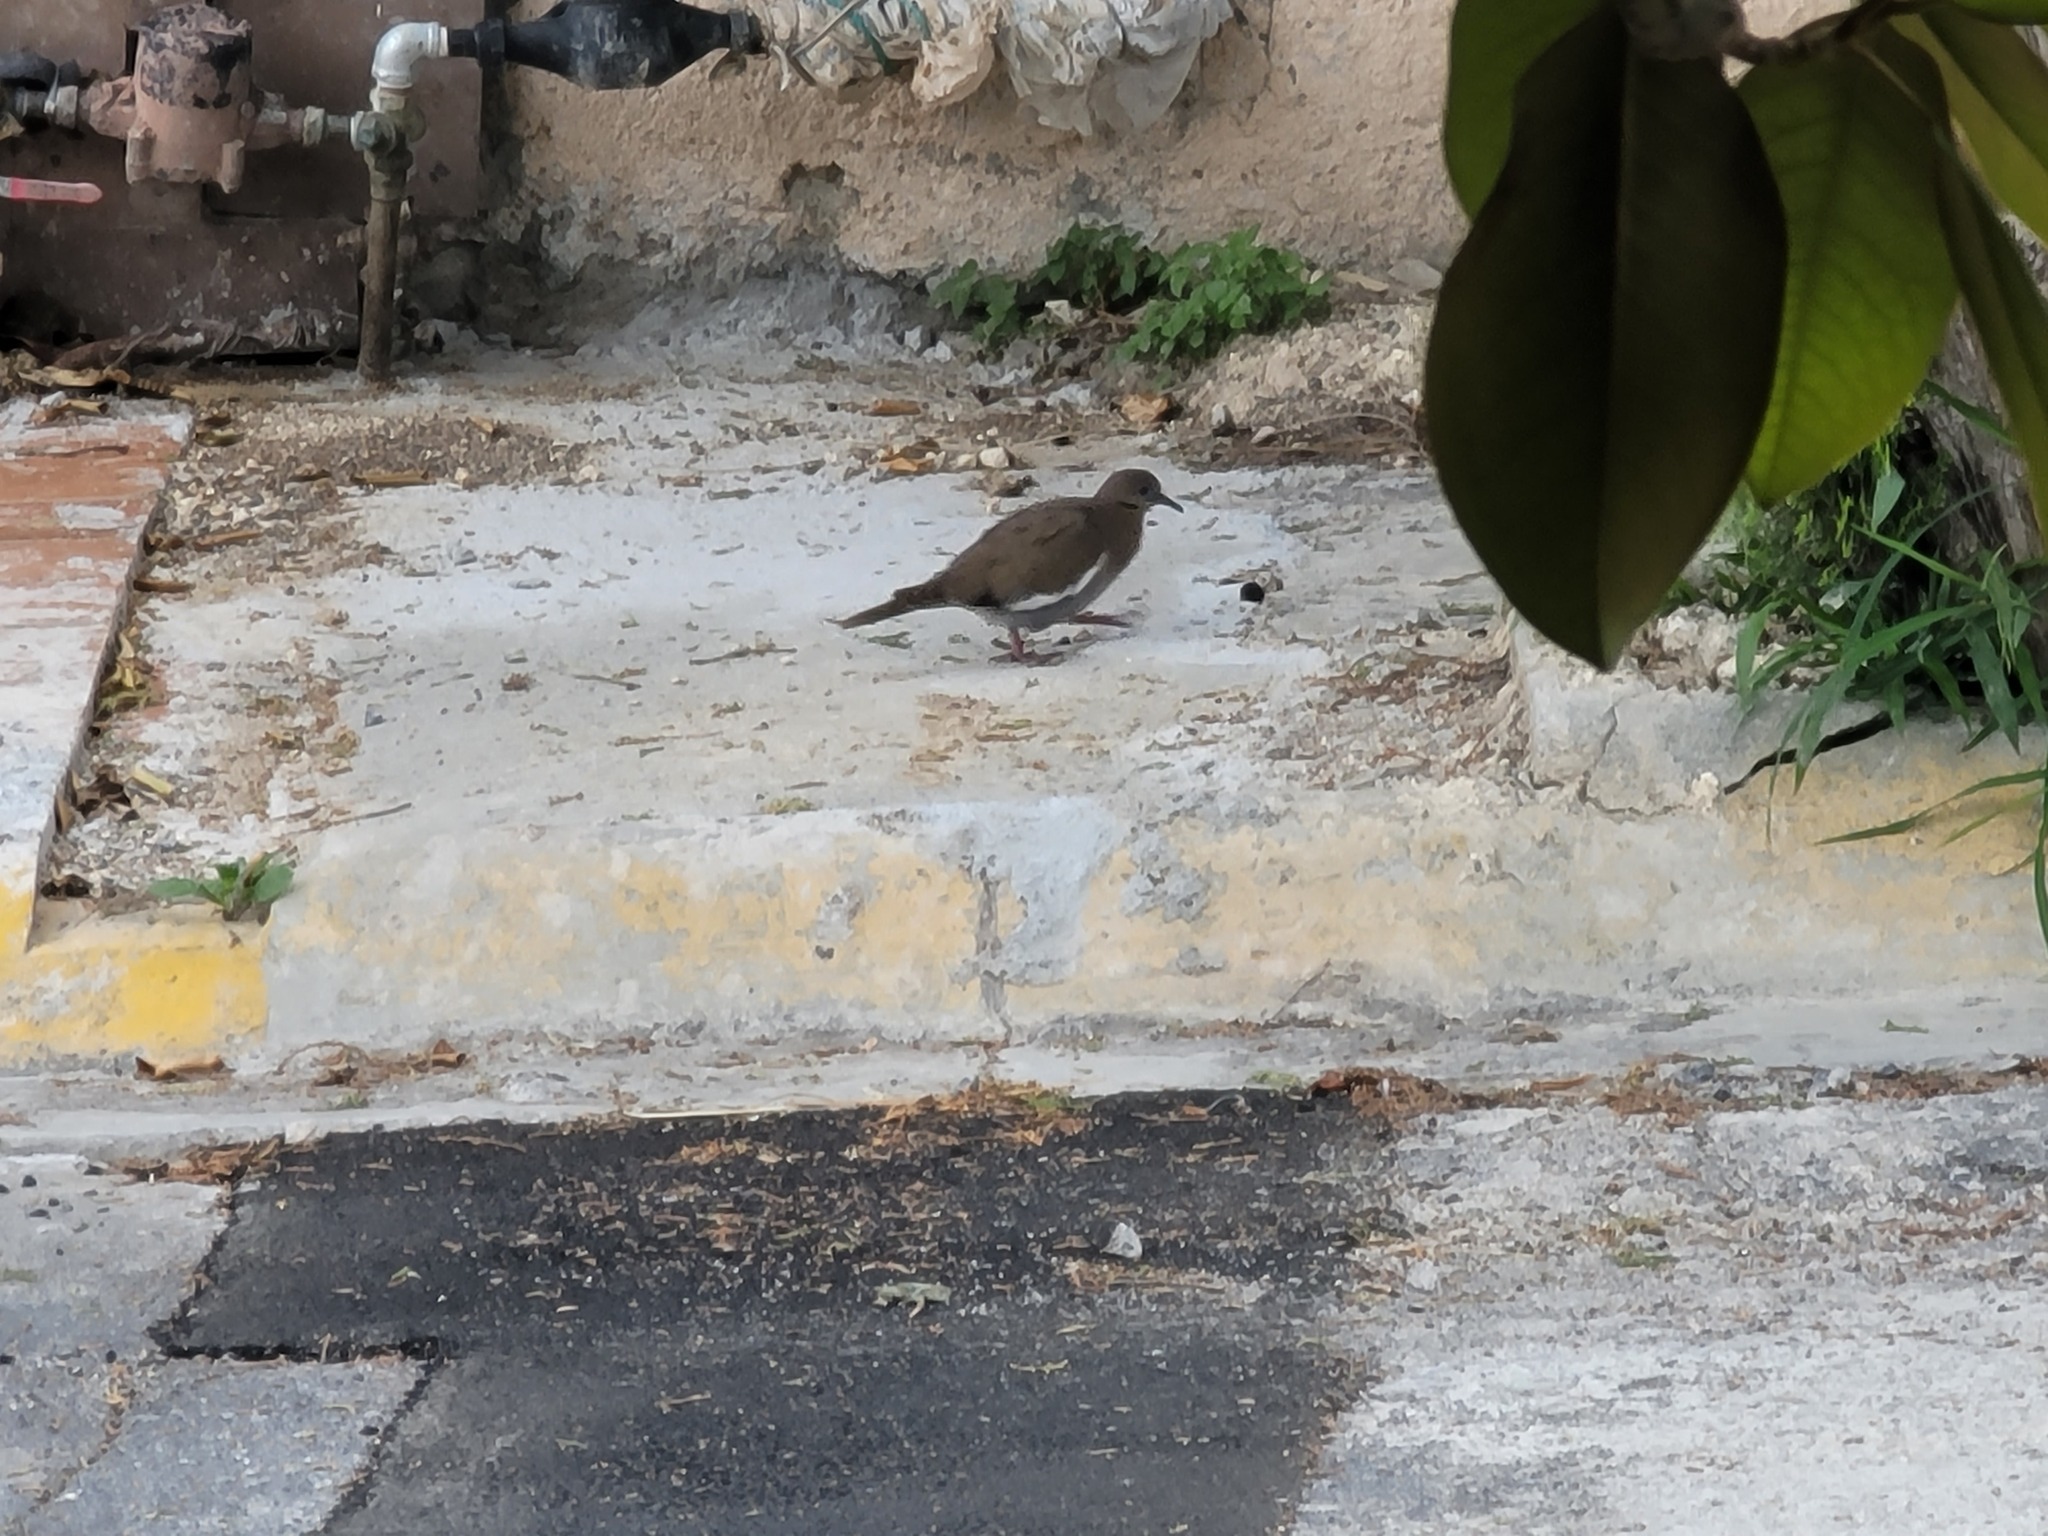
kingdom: Animalia
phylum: Chordata
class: Aves
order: Columbiformes
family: Columbidae
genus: Zenaida
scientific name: Zenaida asiatica
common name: White-winged dove
